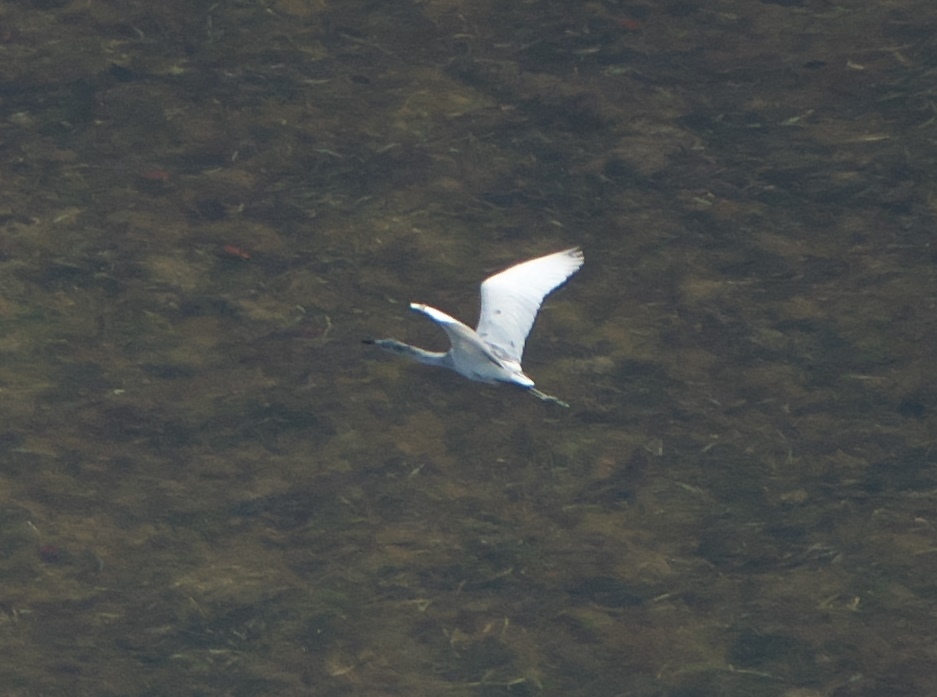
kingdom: Animalia
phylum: Chordata
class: Aves
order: Pelecaniformes
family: Ardeidae
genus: Egretta
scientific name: Egretta caerulea
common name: Little blue heron
